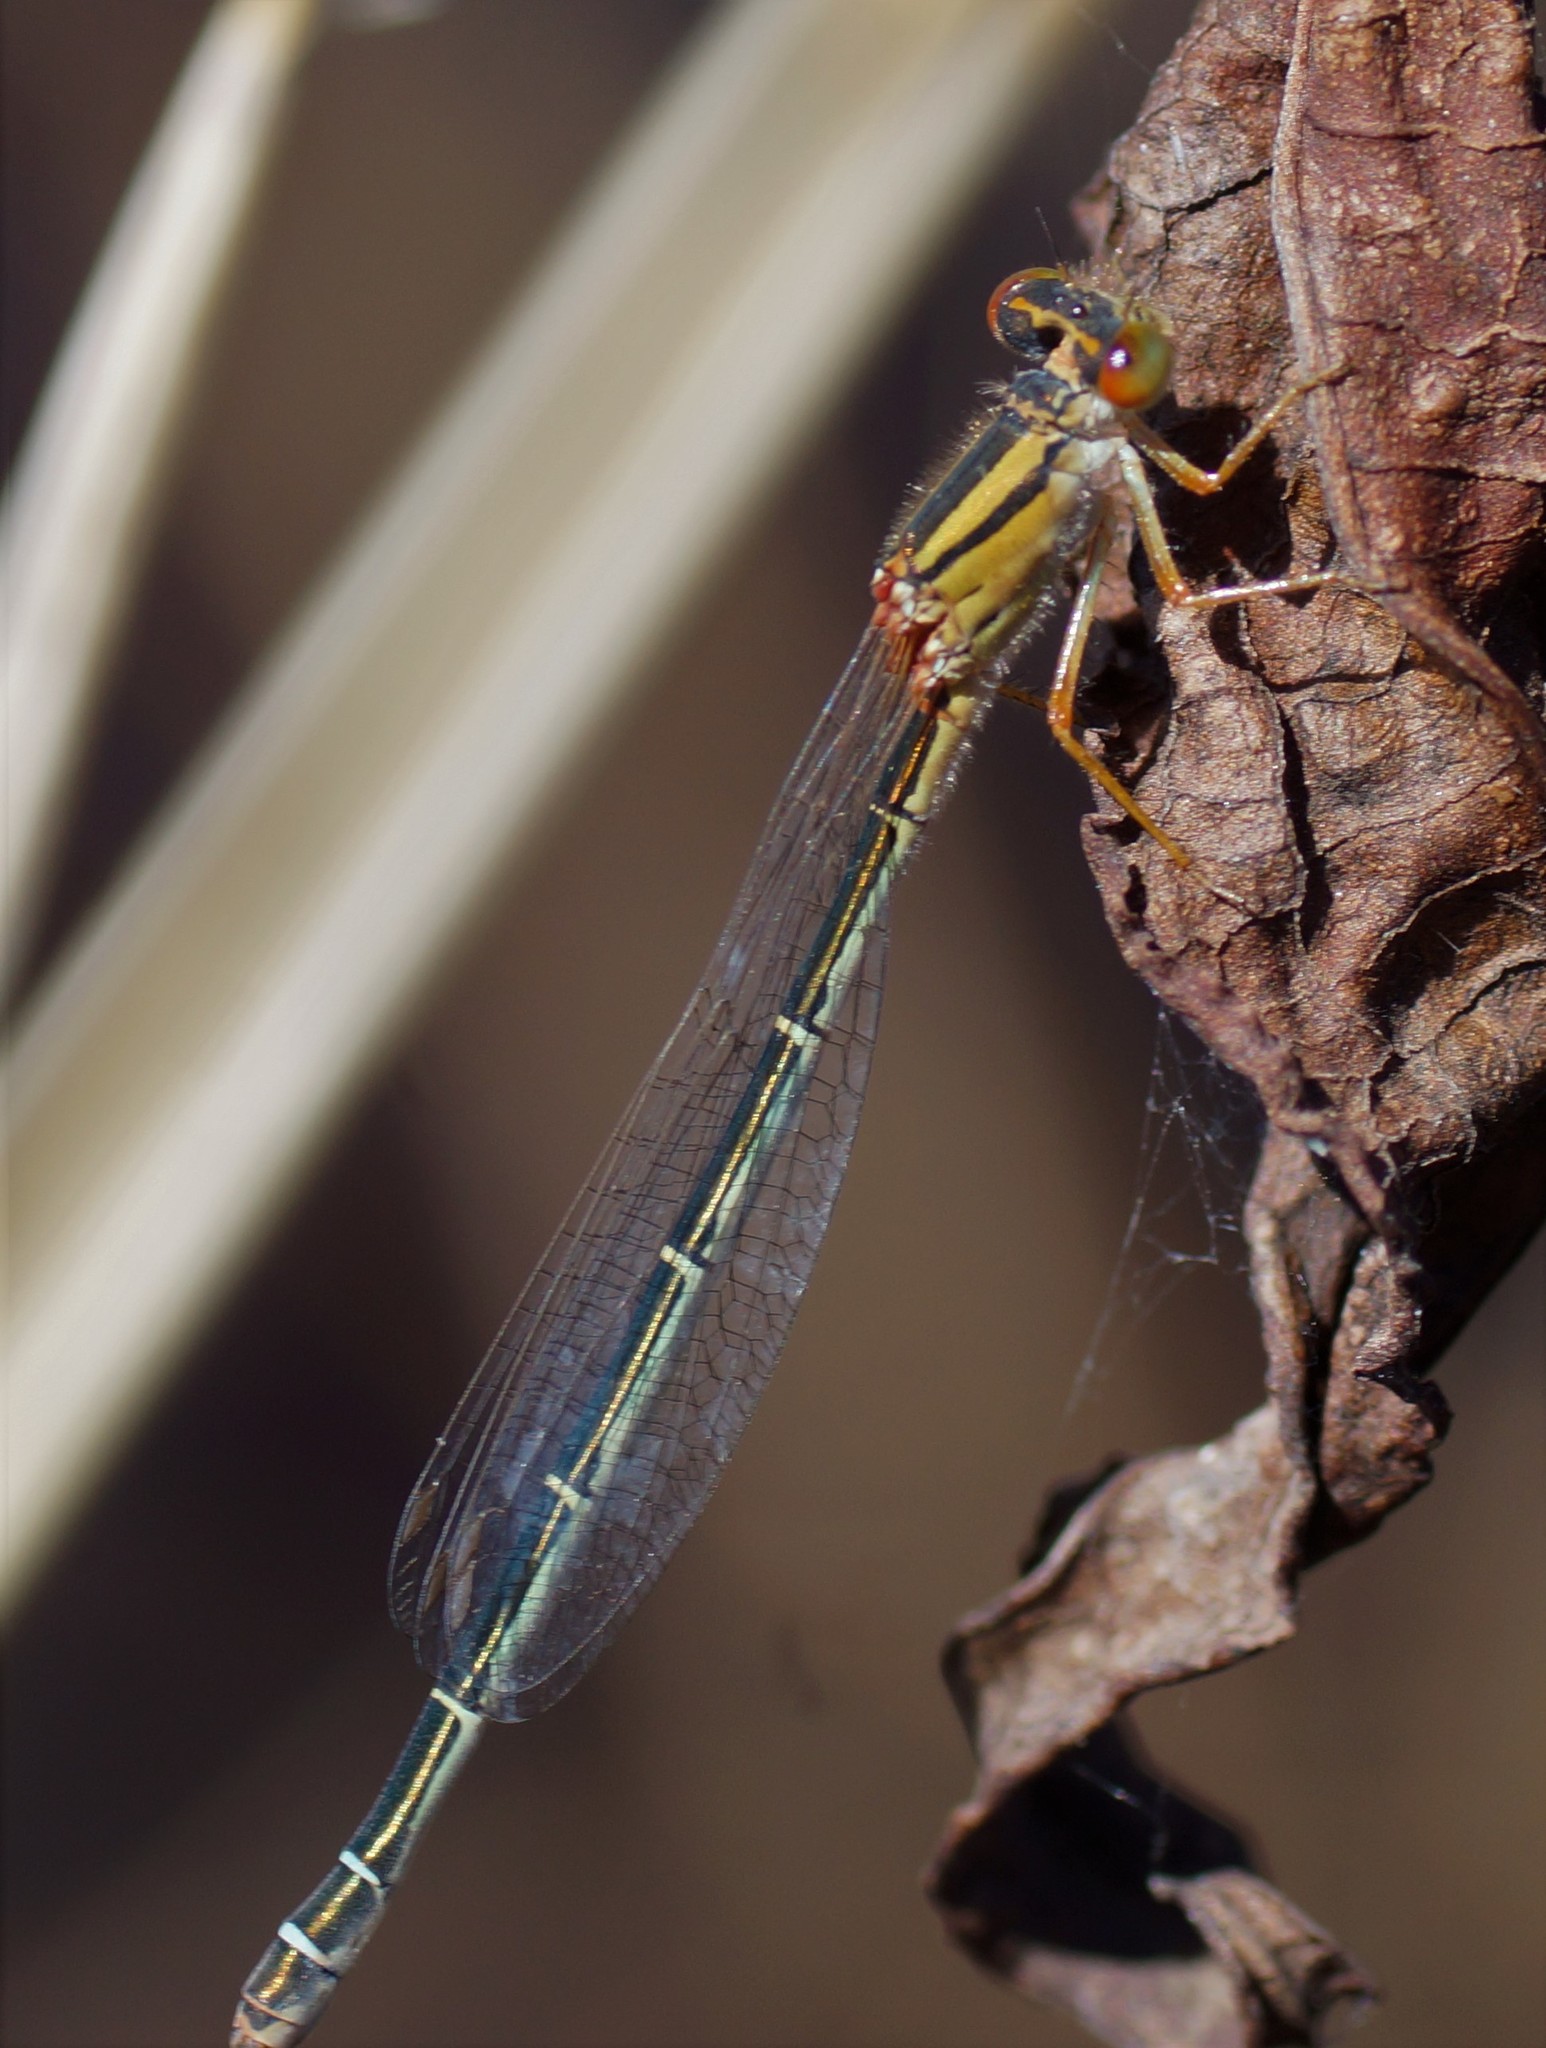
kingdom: Animalia
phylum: Arthropoda
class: Insecta
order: Odonata
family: Coenagrionidae
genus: Xanthagrion
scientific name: Xanthagrion erythroneurum
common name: Red and blue damsel
